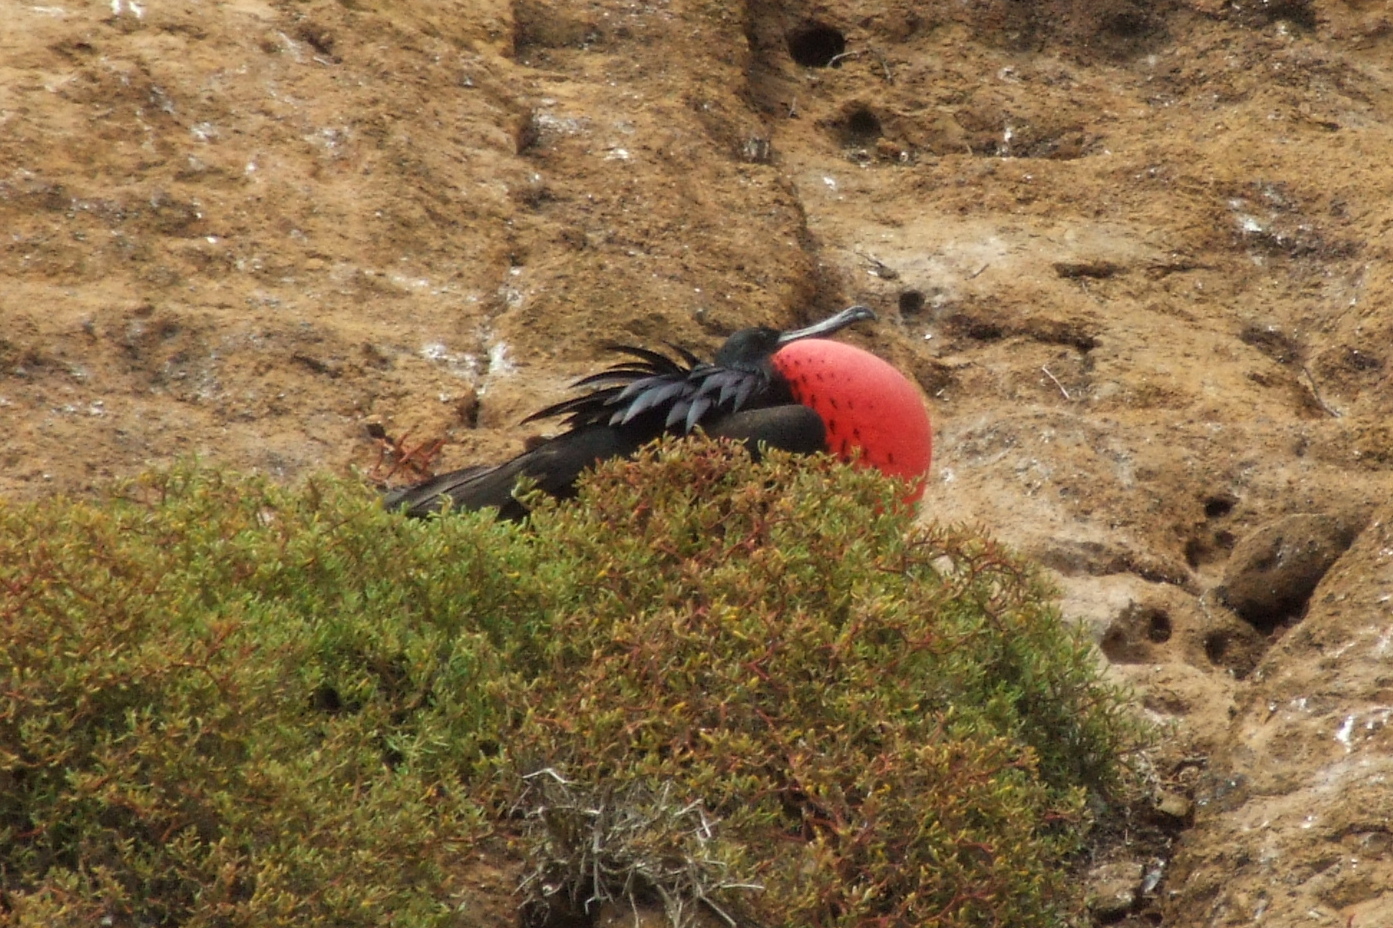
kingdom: Animalia
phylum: Chordata
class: Aves
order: Suliformes
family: Fregatidae
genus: Fregata
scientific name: Fregata magnificens
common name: Magnificent frigatebird
